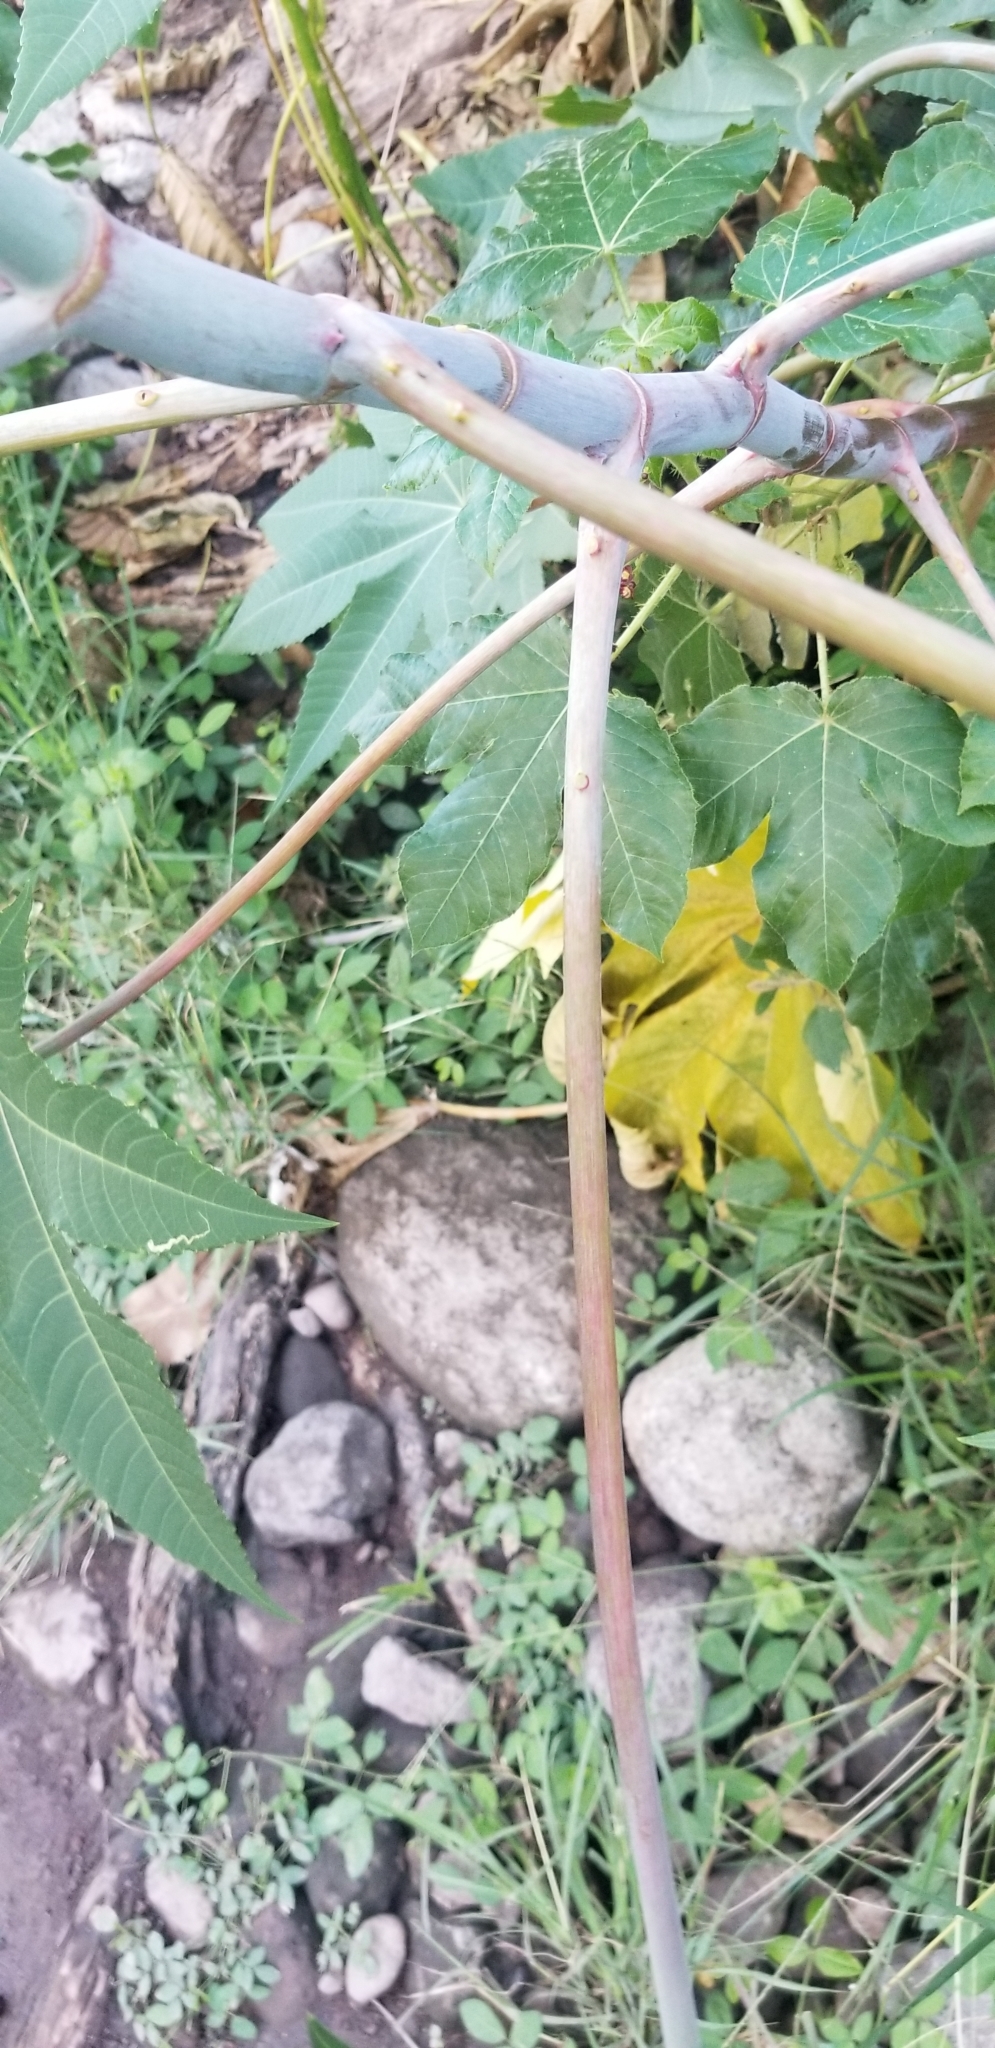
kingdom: Plantae
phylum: Tracheophyta
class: Magnoliopsida
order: Malpighiales
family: Euphorbiaceae
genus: Ricinus
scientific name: Ricinus communis
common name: Castor-oil-plant
